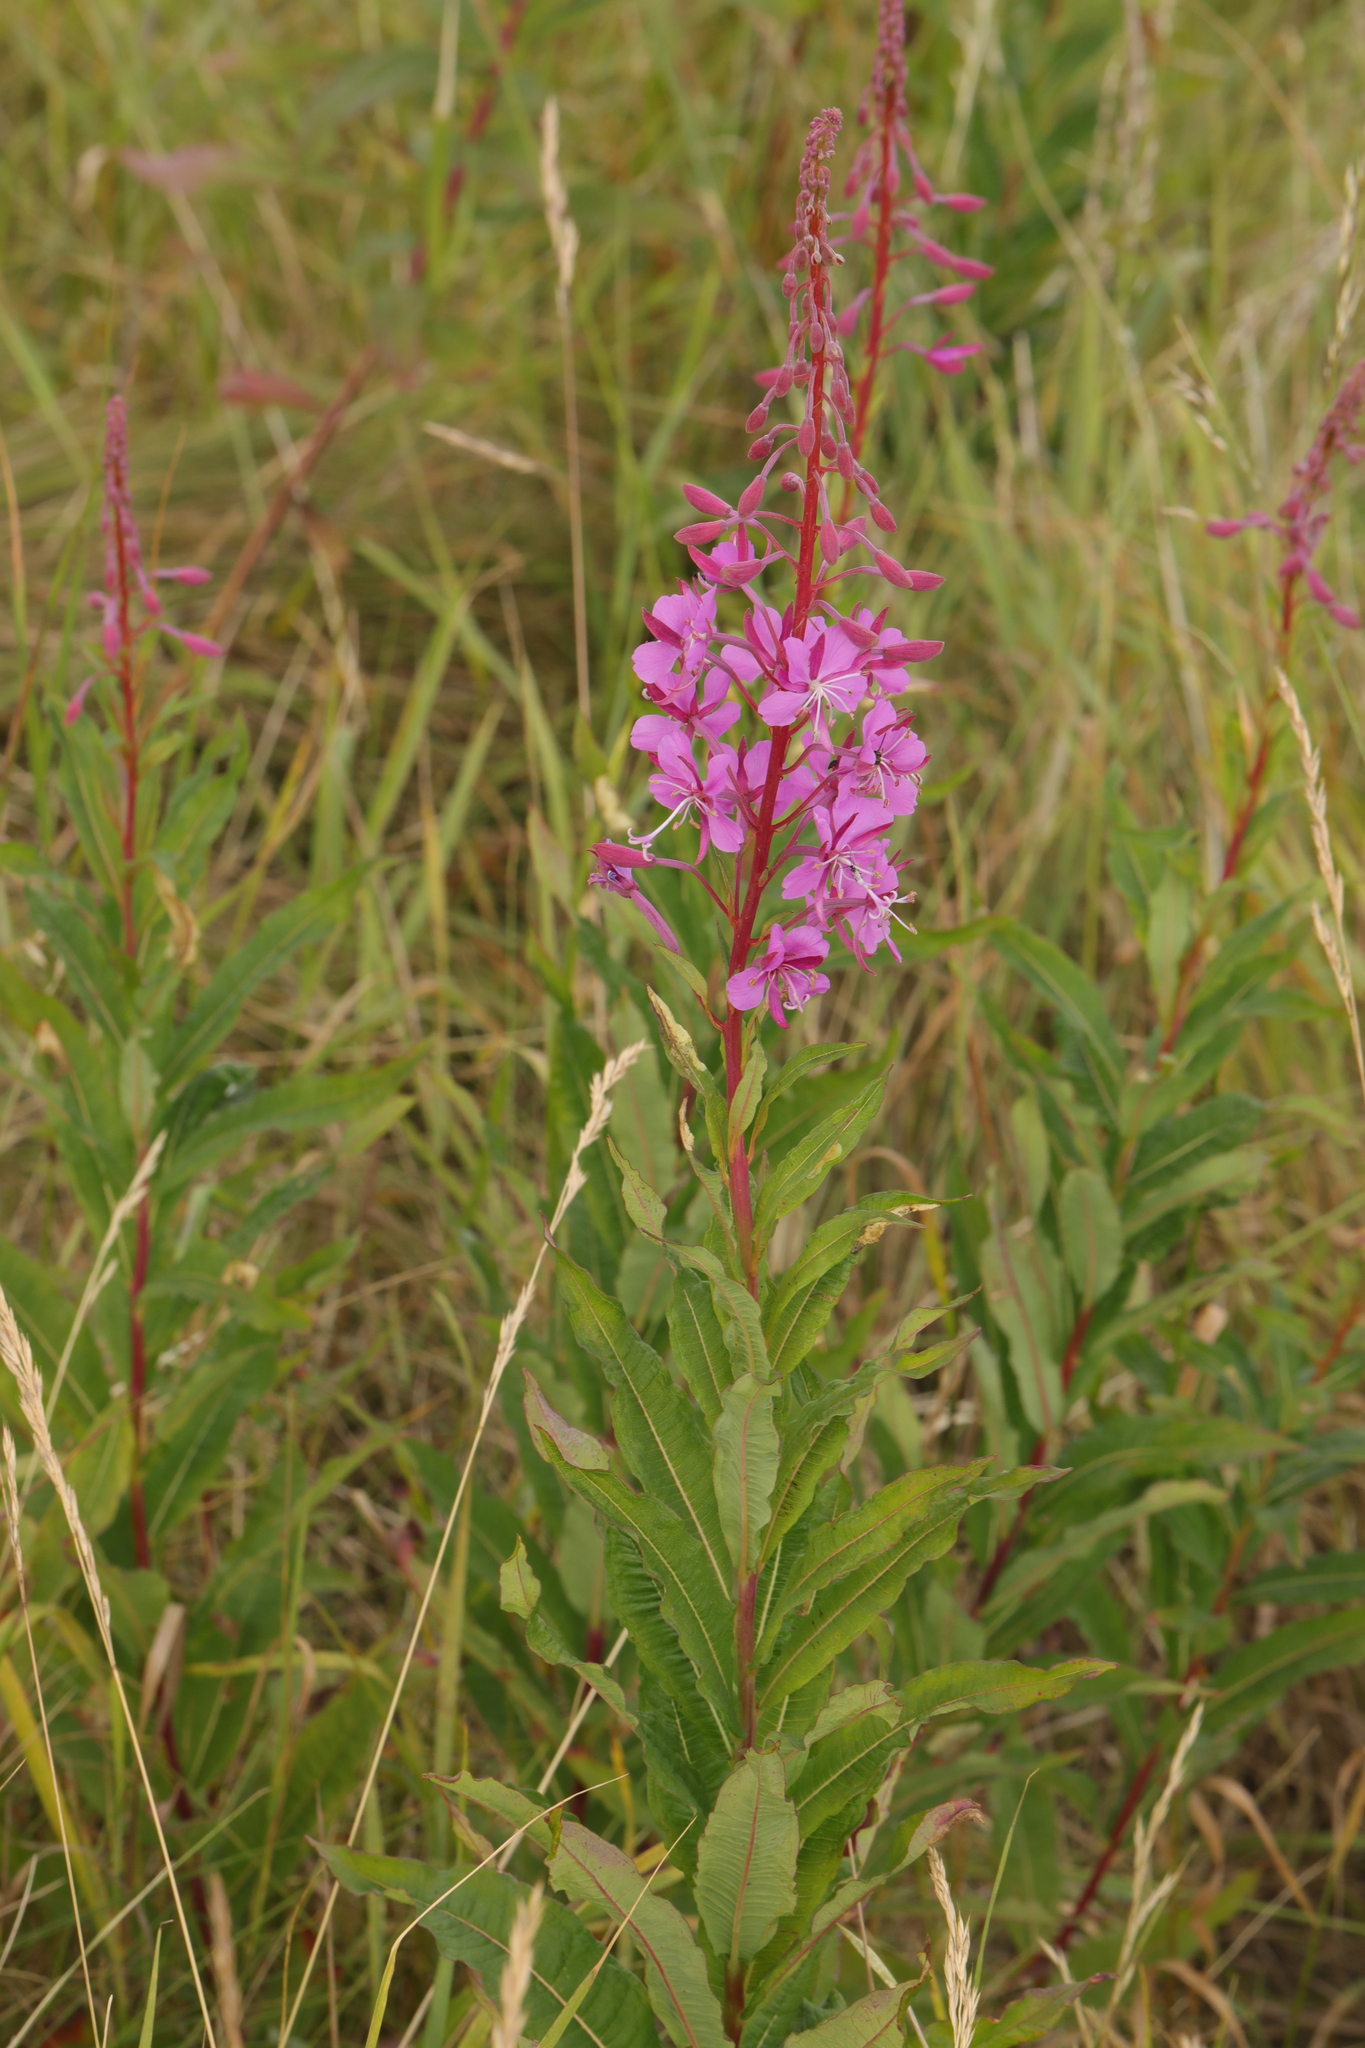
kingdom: Plantae
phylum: Tracheophyta
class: Magnoliopsida
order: Myrtales
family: Onagraceae
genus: Chamaenerion
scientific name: Chamaenerion angustifolium
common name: Fireweed
